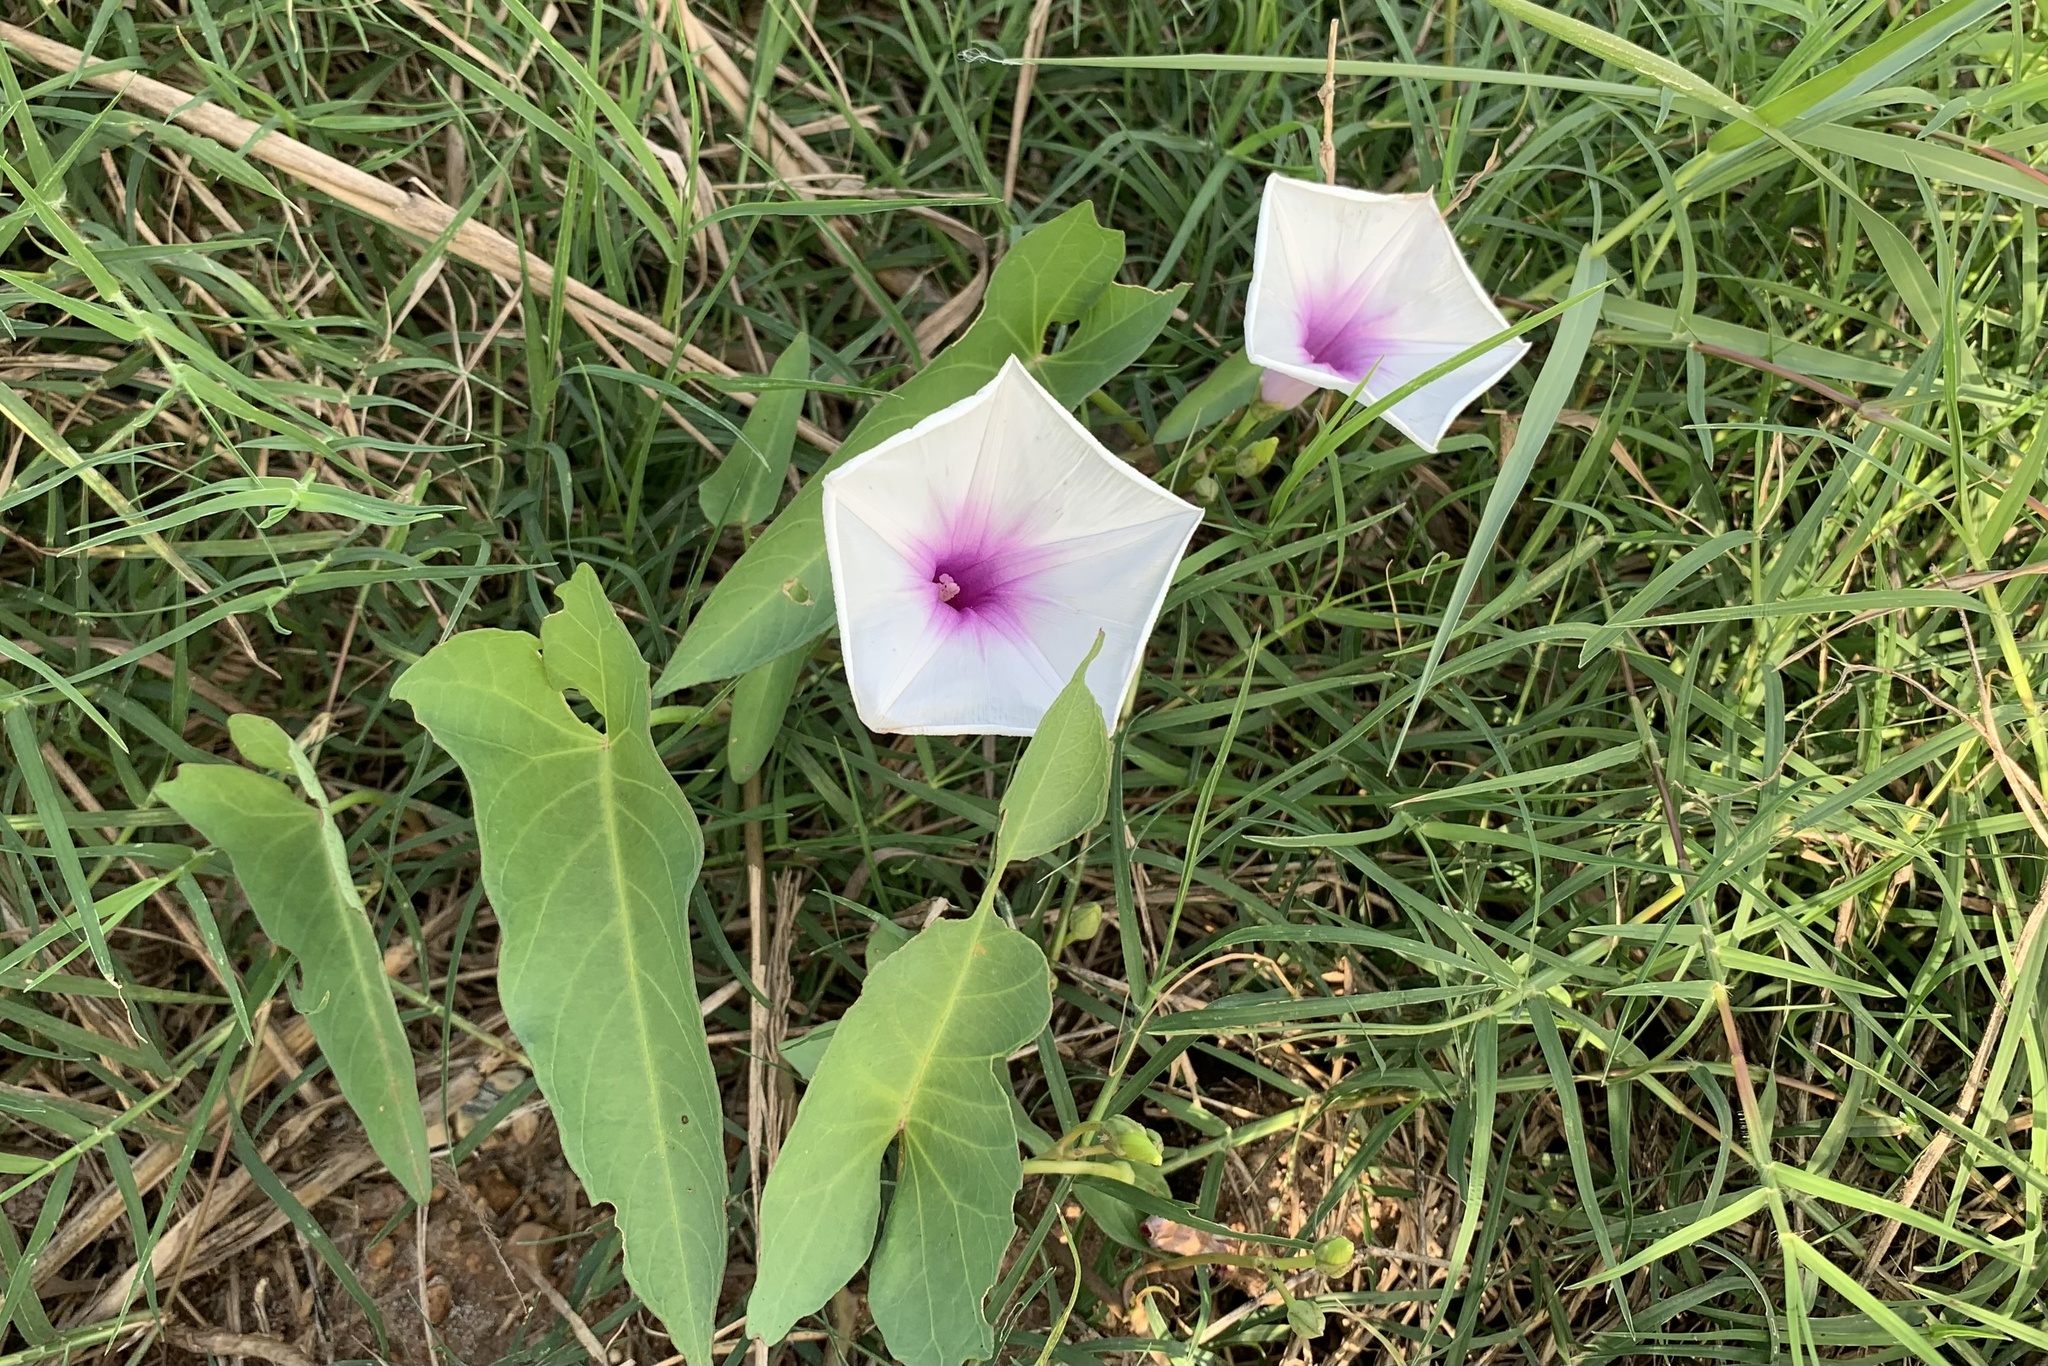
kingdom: Plantae
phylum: Tracheophyta
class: Magnoliopsida
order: Solanales
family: Convolvulaceae
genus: Ipomoea
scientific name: Ipomoea aquatica
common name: Swamp morning-glory
